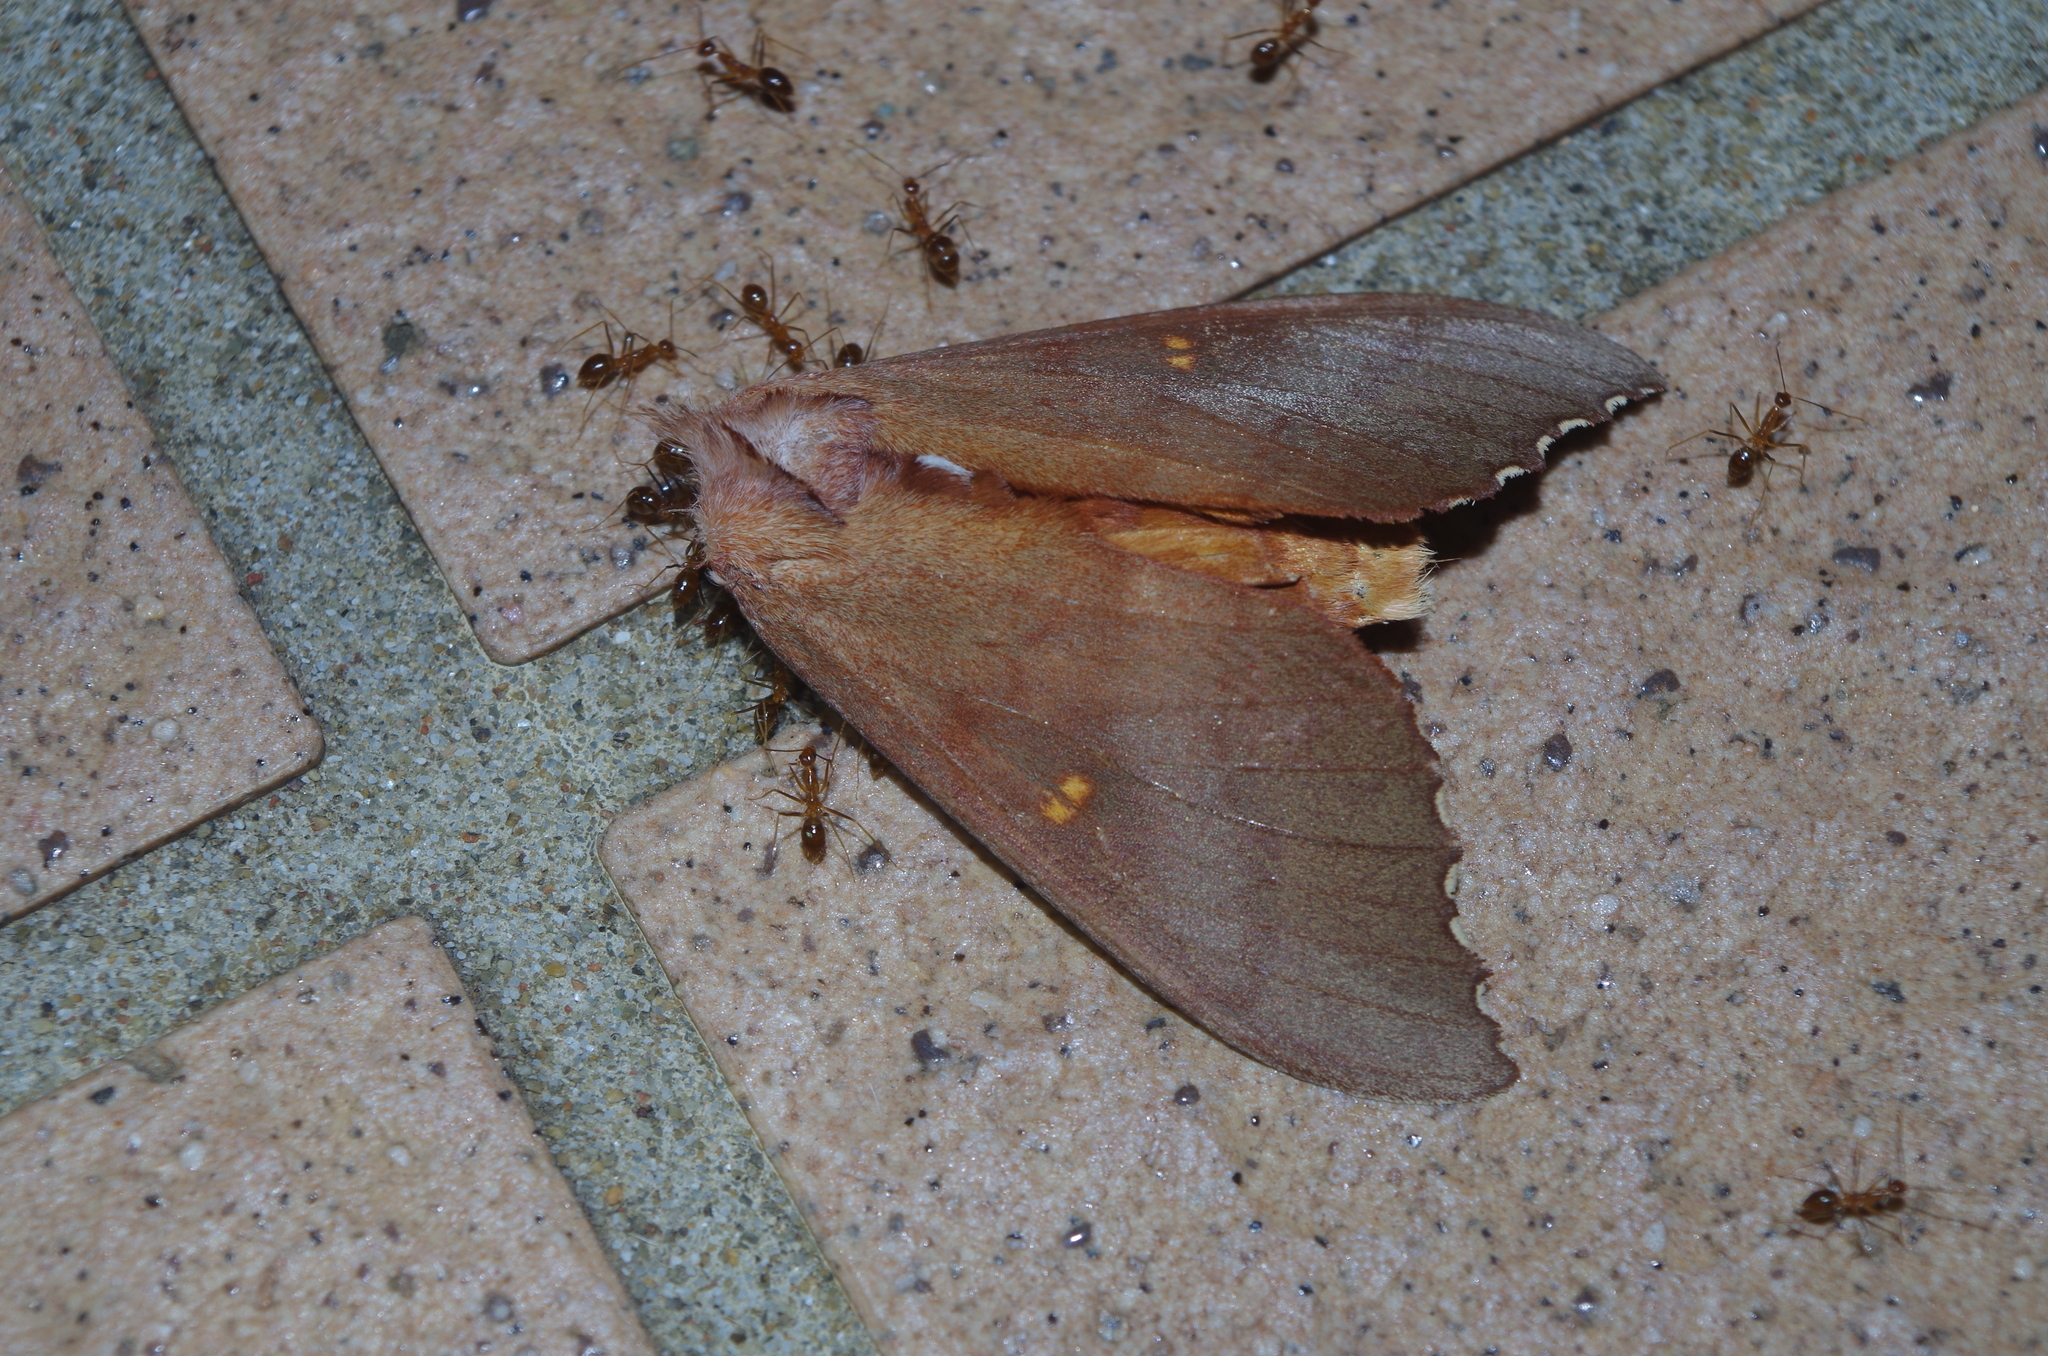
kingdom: Animalia
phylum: Arthropoda
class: Insecta
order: Lepidoptera
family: Notodontidae
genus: Euhampsonia
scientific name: Euhampsonia cristata
